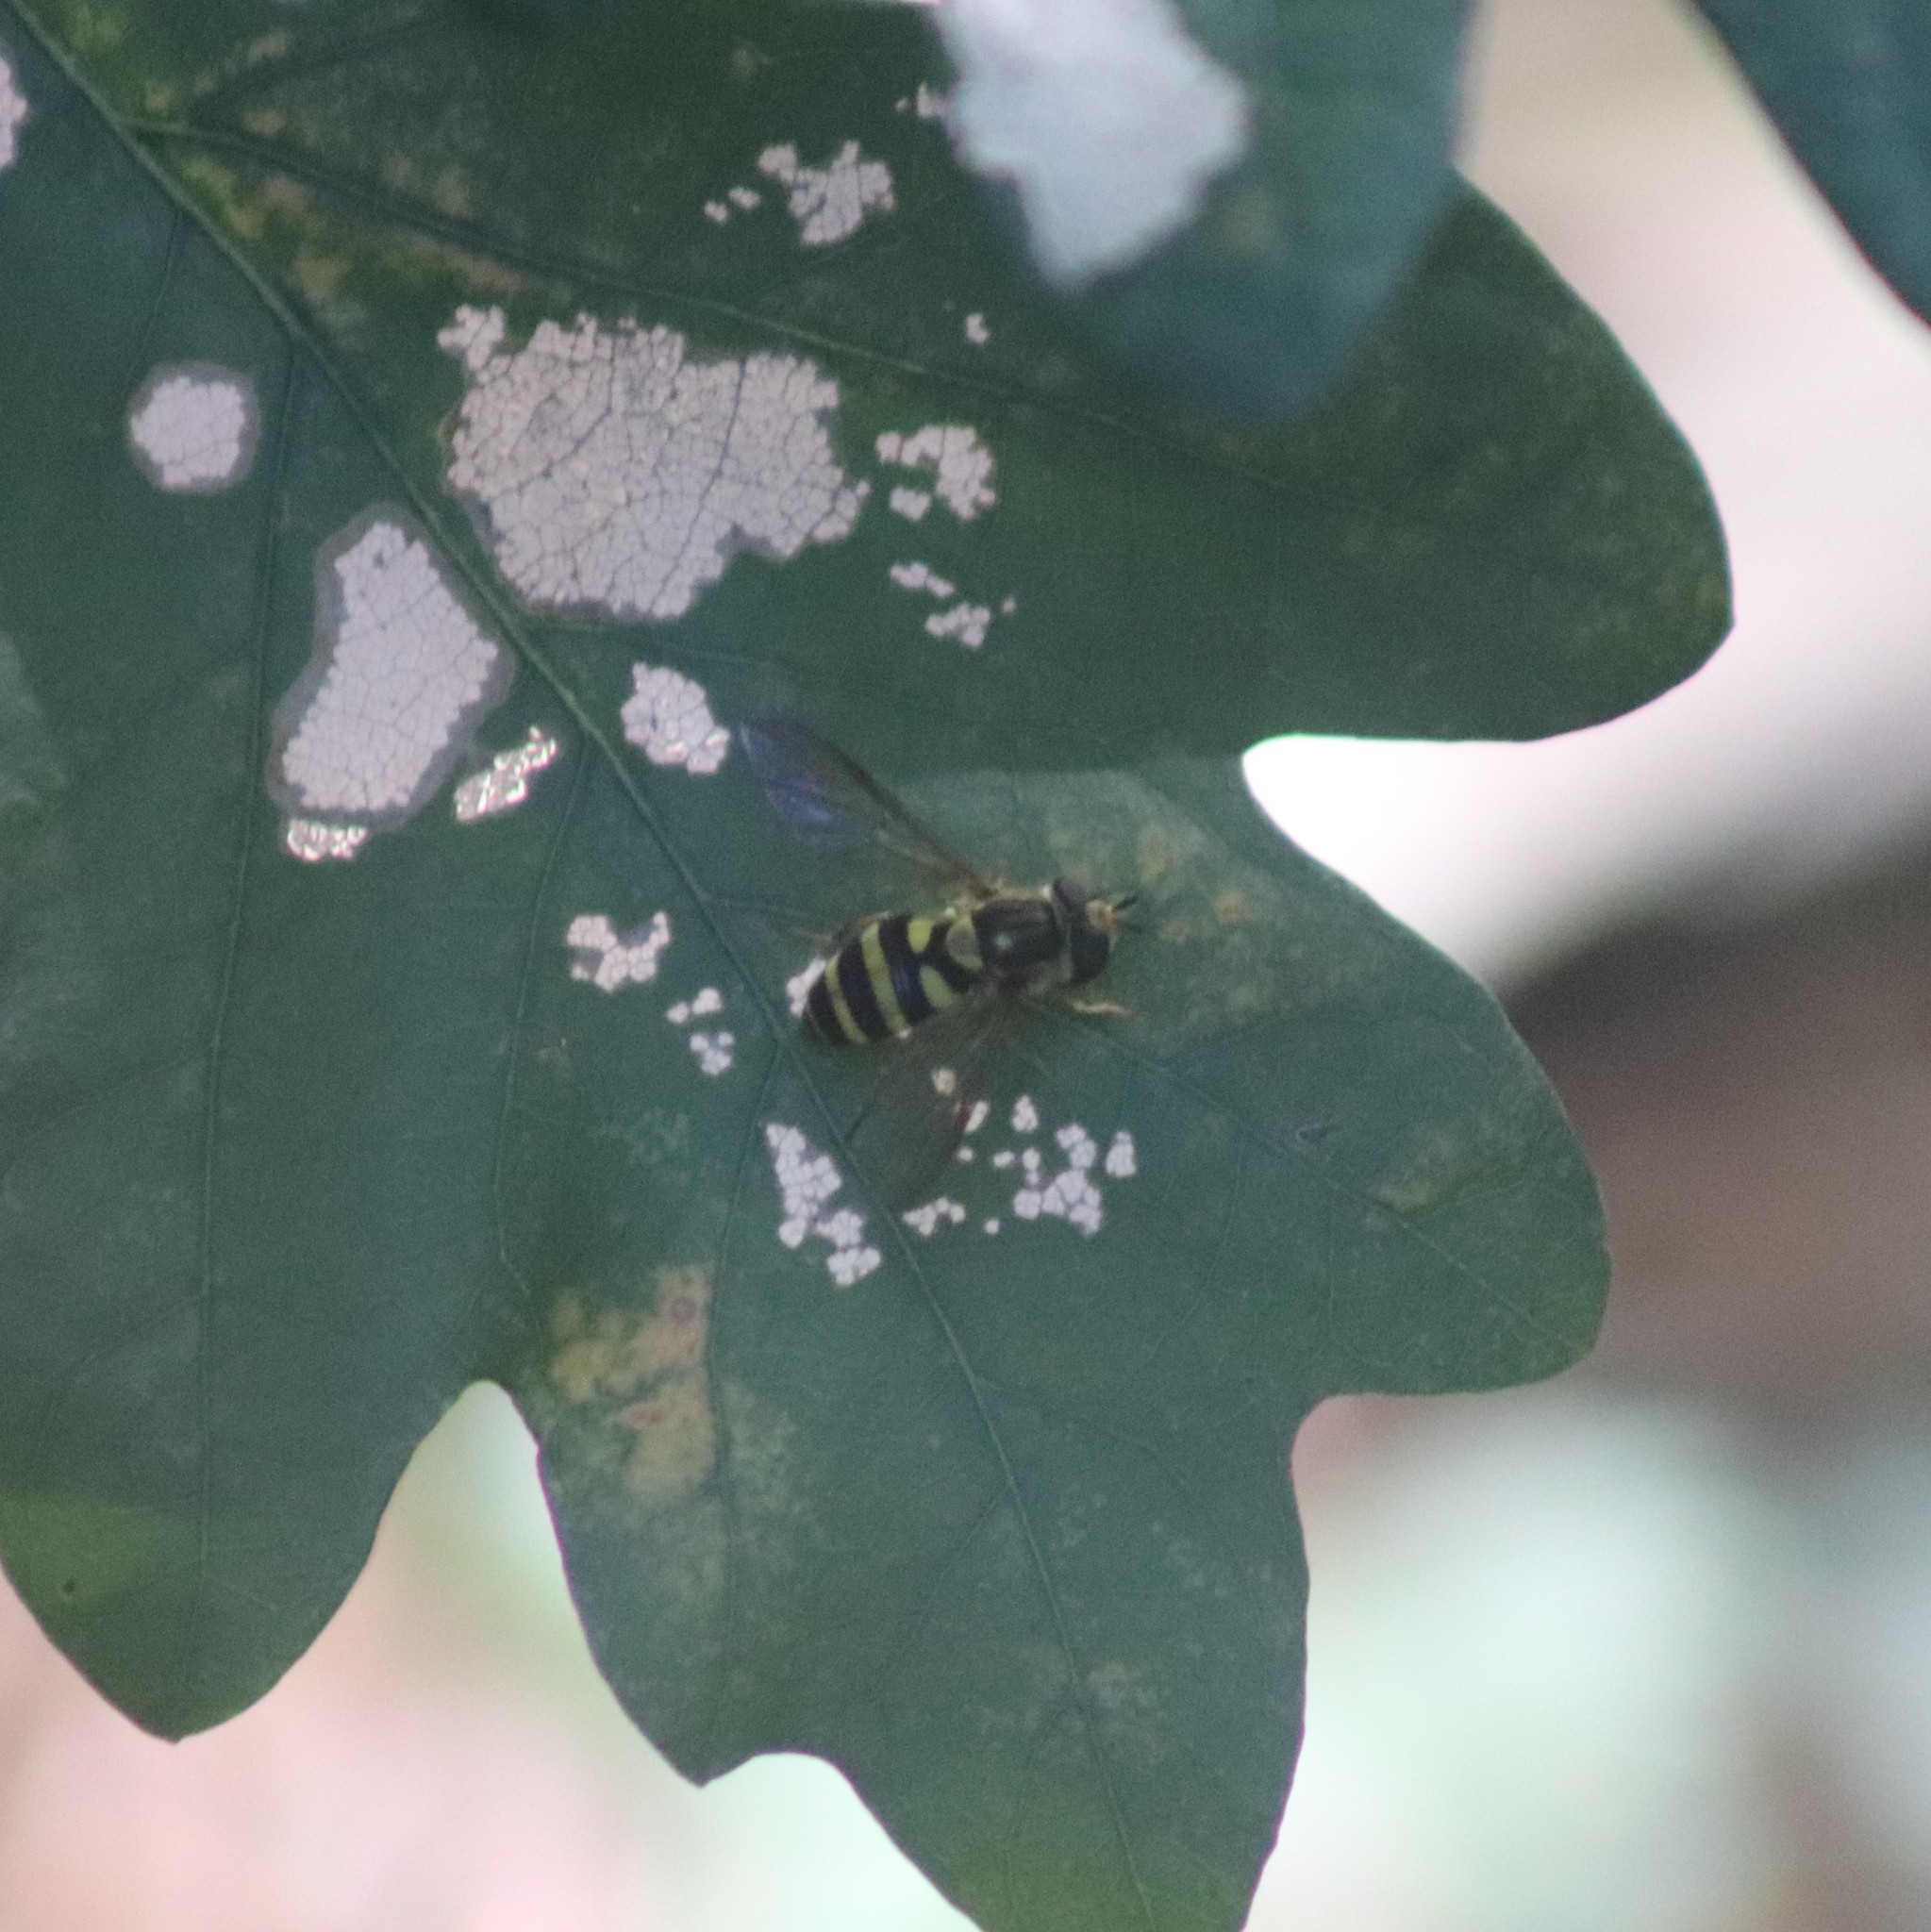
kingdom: Animalia
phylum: Arthropoda
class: Insecta
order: Diptera
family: Syrphidae
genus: Syrphus
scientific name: Syrphus
